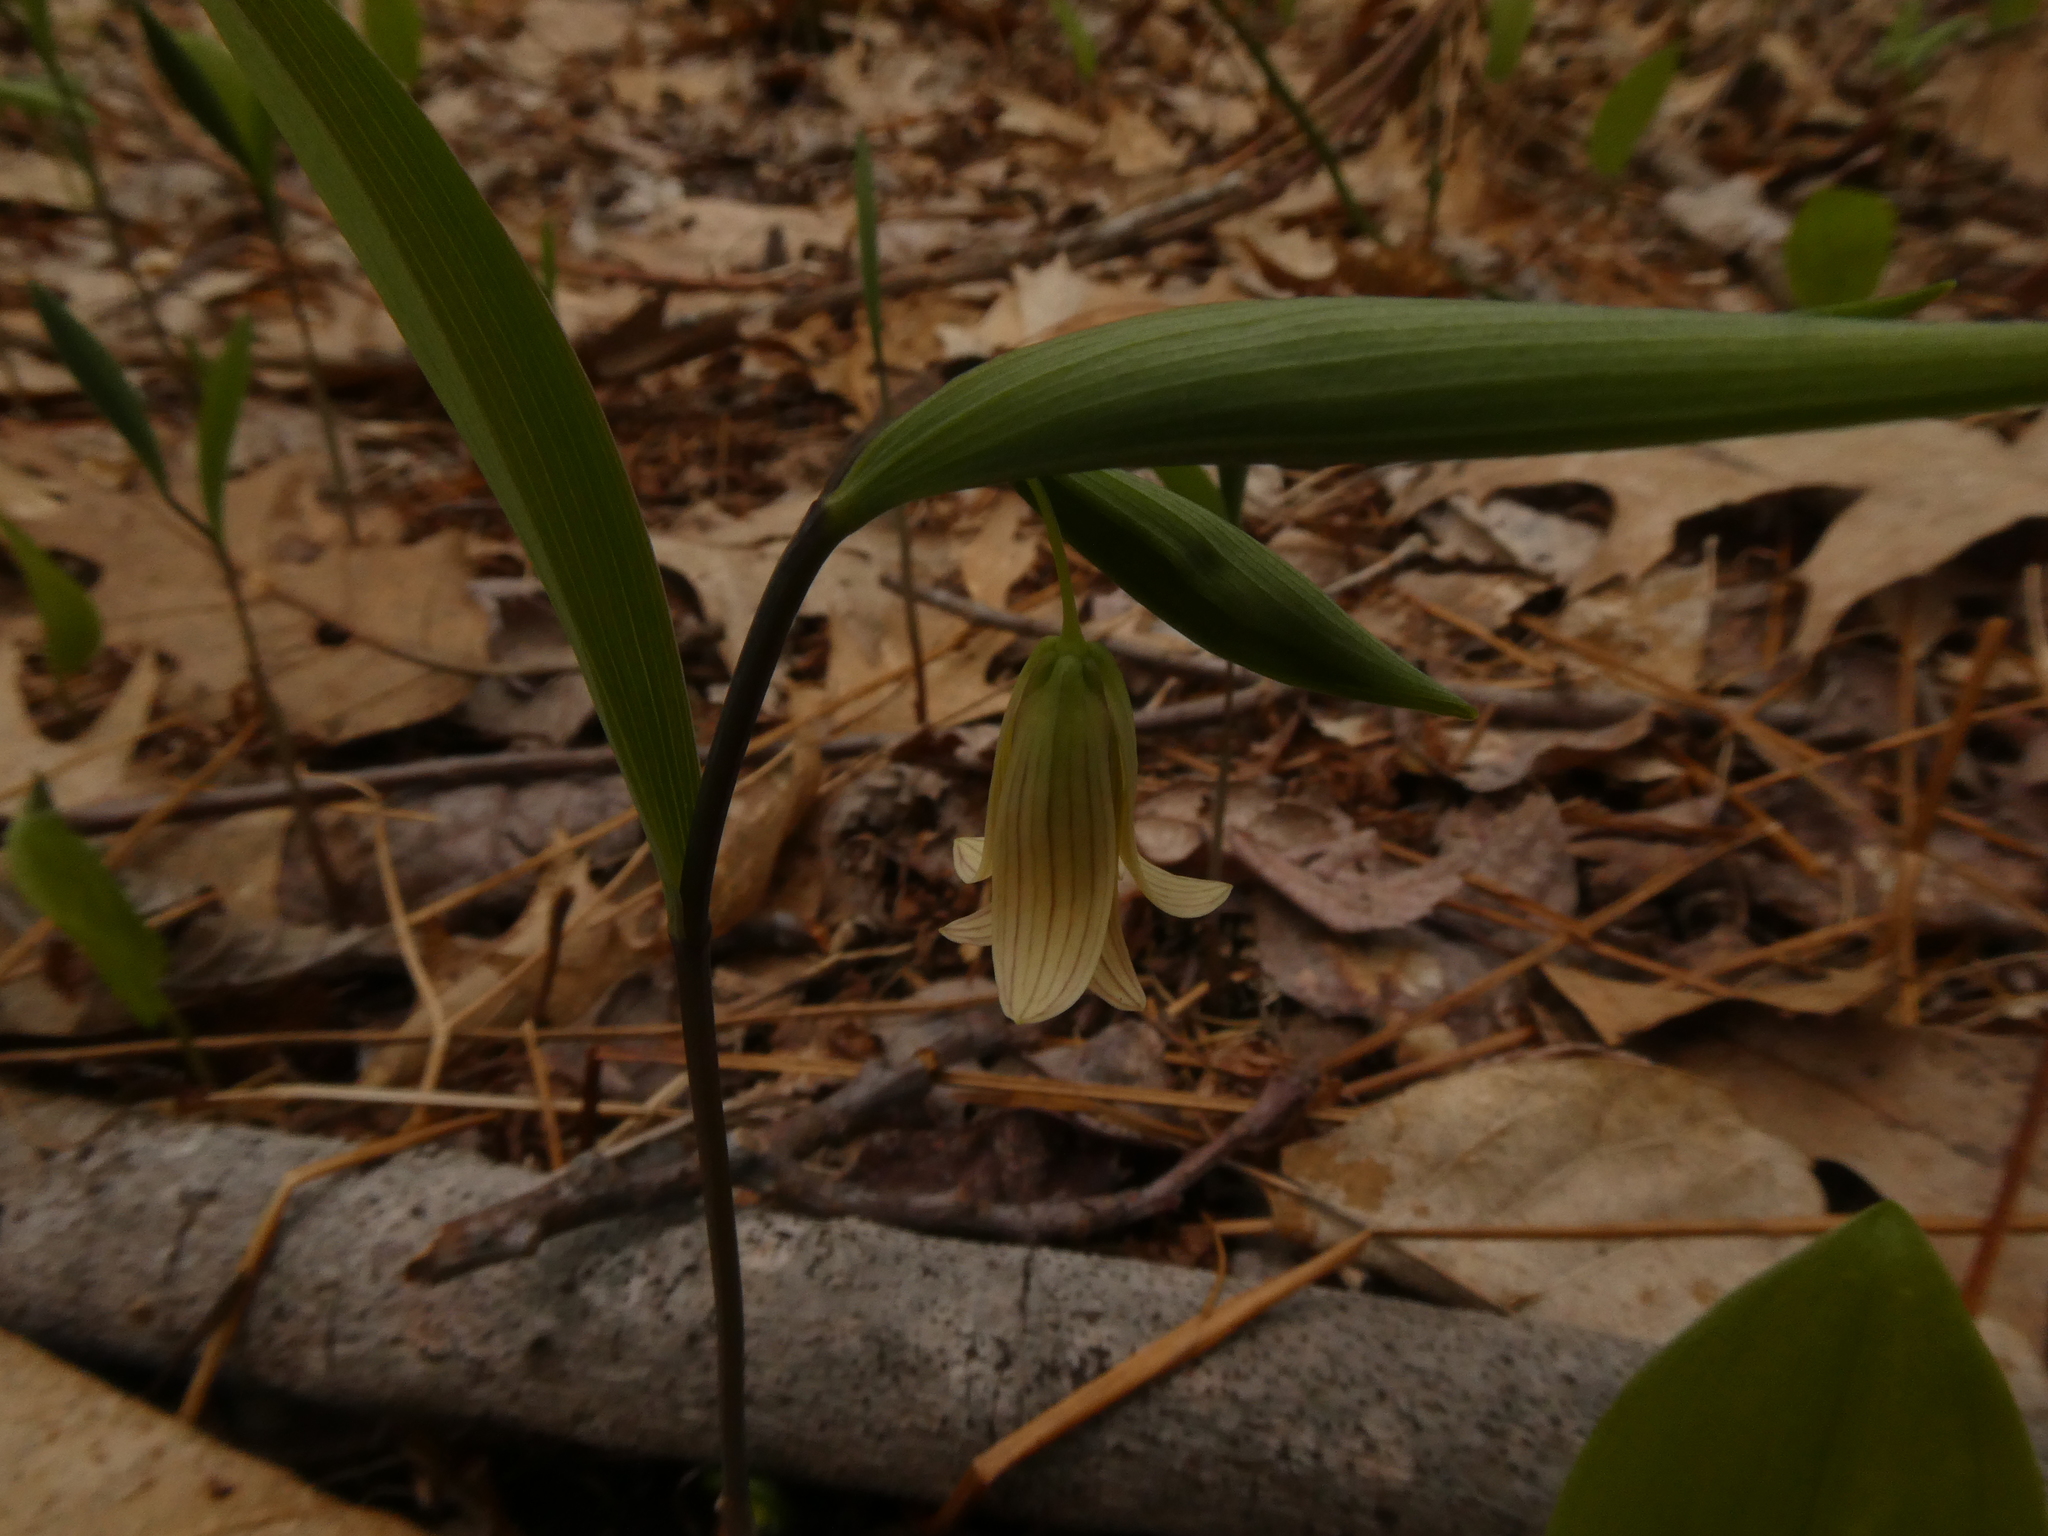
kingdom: Plantae
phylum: Tracheophyta
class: Liliopsida
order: Liliales
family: Colchicaceae
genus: Uvularia
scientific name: Uvularia sessilifolia
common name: Straw-lily
